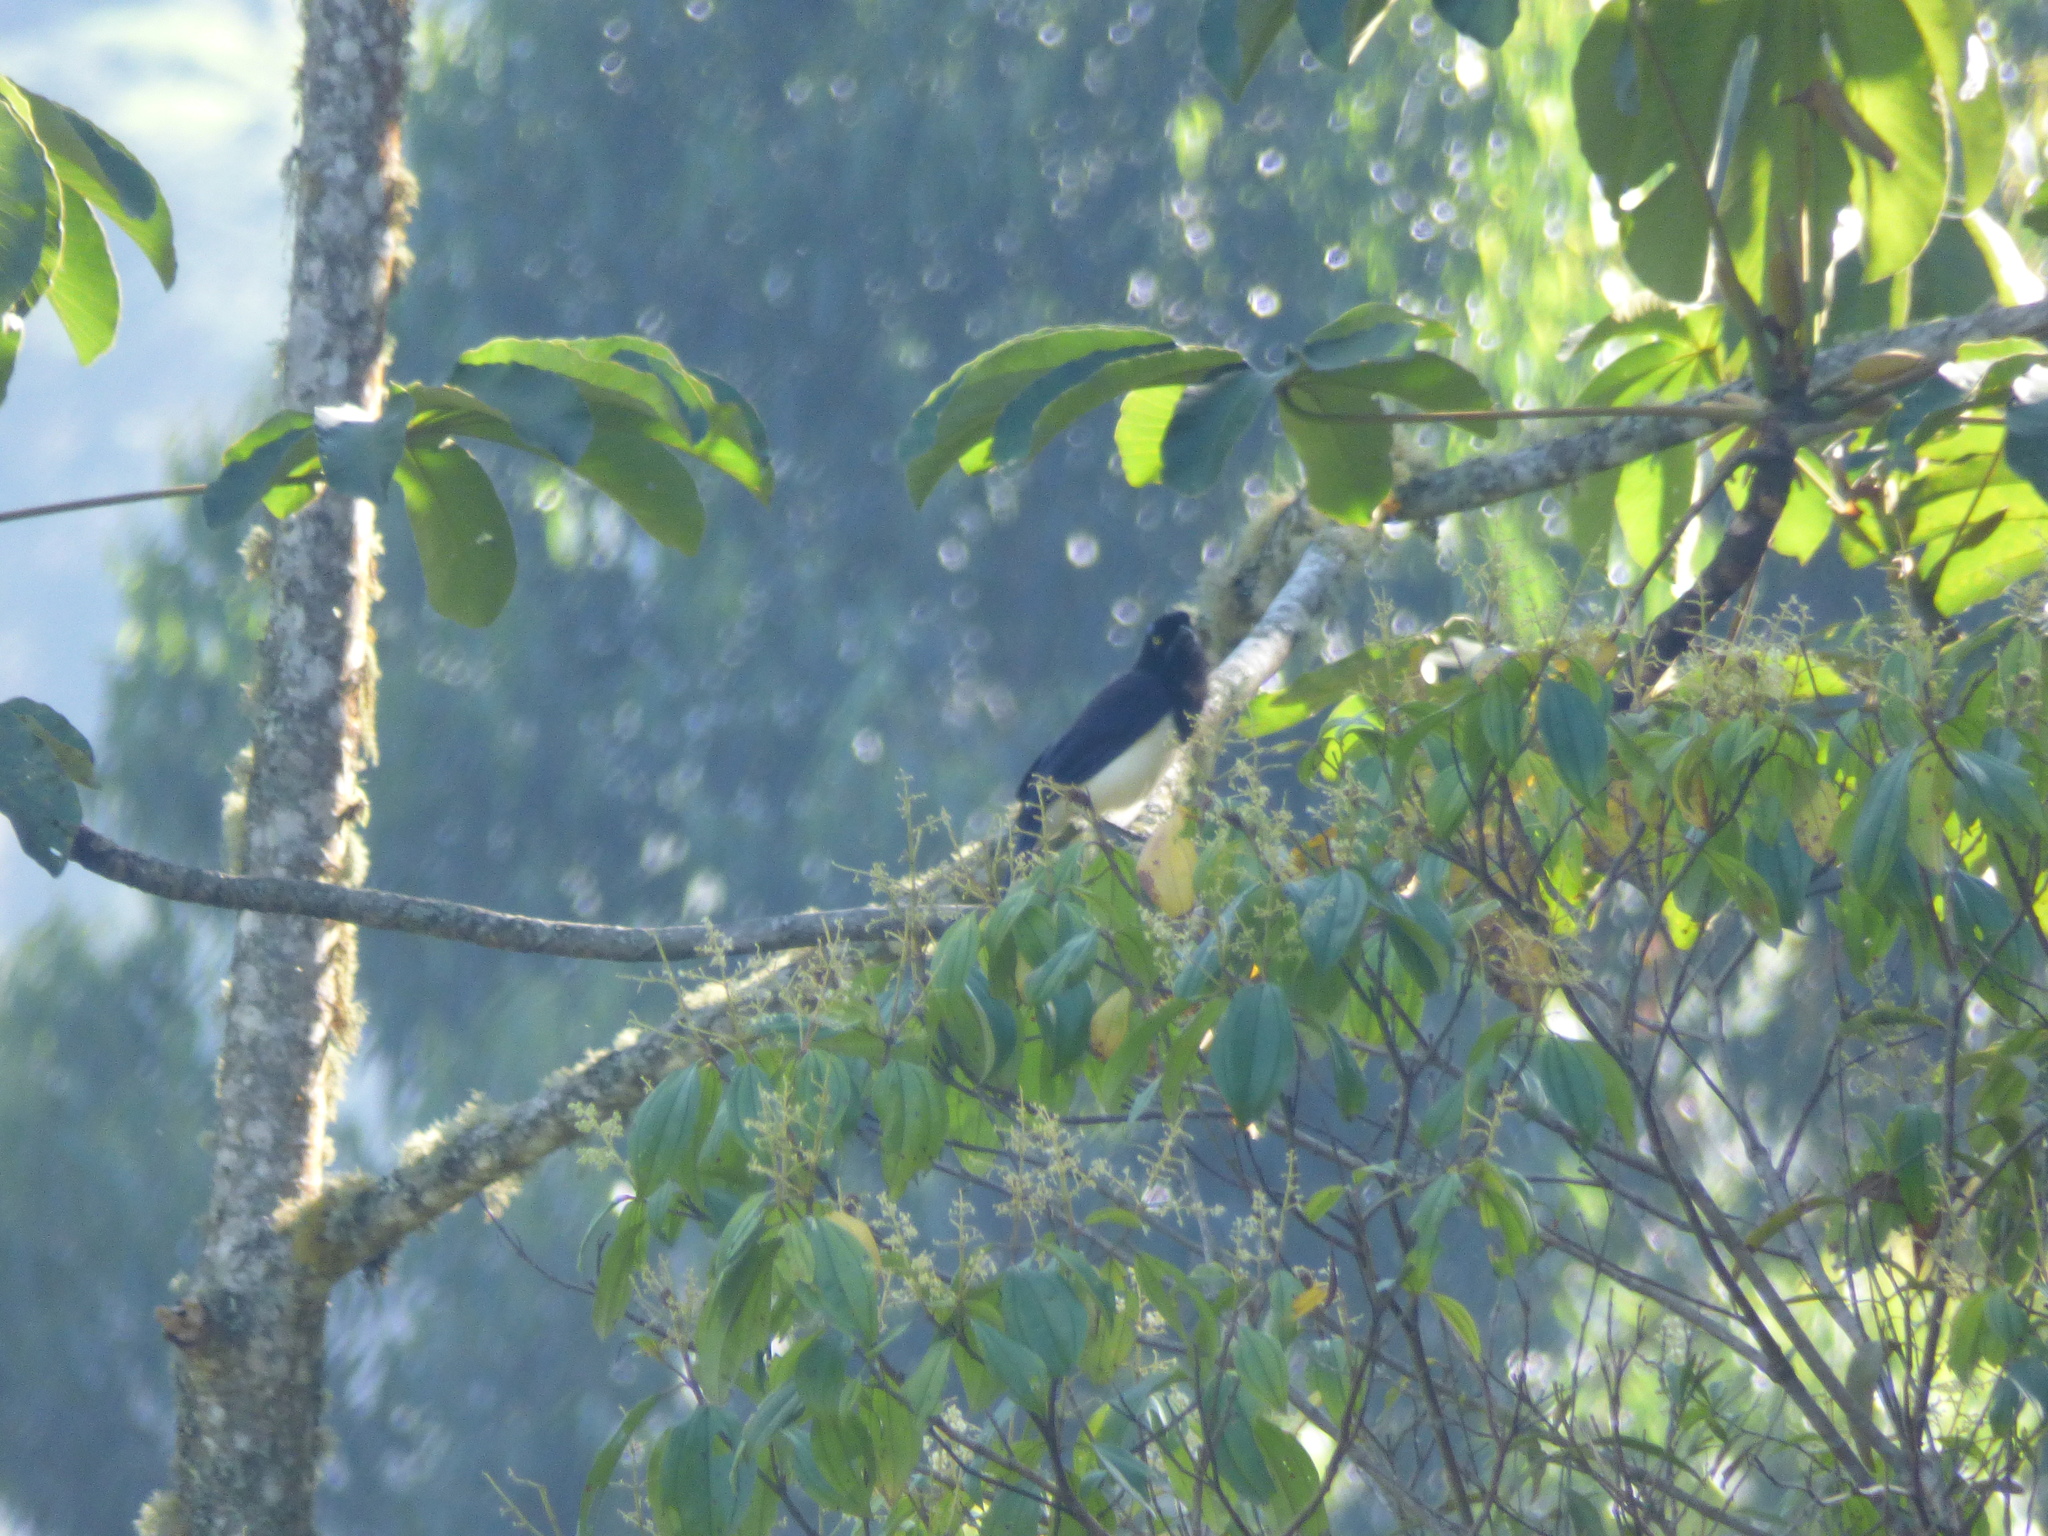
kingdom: Animalia
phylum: Chordata
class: Aves
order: Passeriformes
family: Corvidae
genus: Cyanocorax
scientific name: Cyanocorax affinis
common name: Black-chested jay
